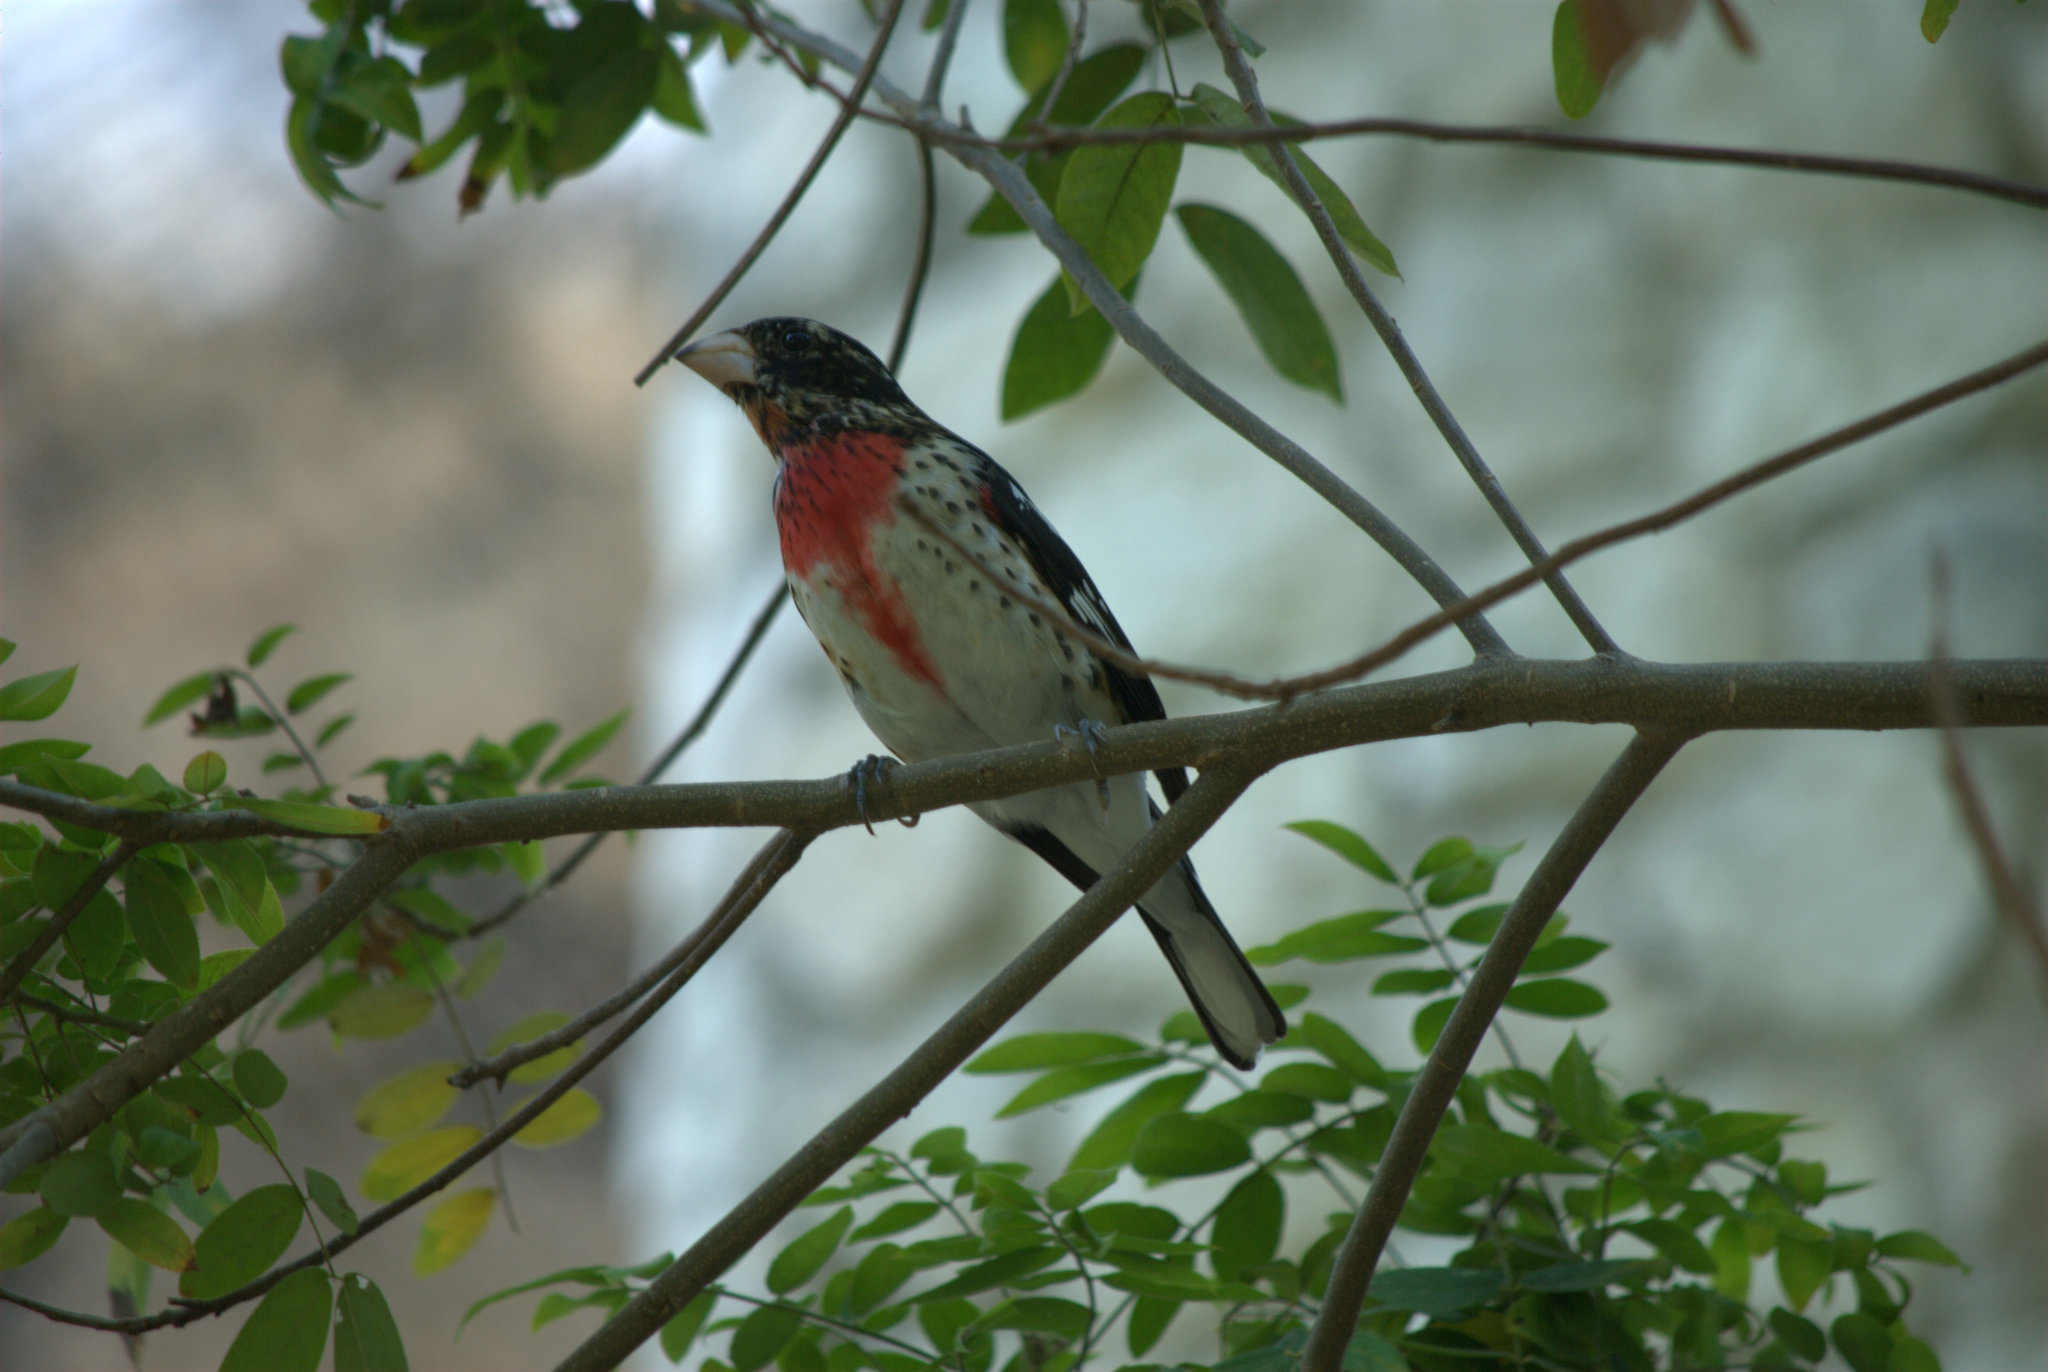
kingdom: Animalia
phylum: Chordata
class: Aves
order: Passeriformes
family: Cardinalidae
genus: Pheucticus
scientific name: Pheucticus ludovicianus
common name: Rose-breasted grosbeak
